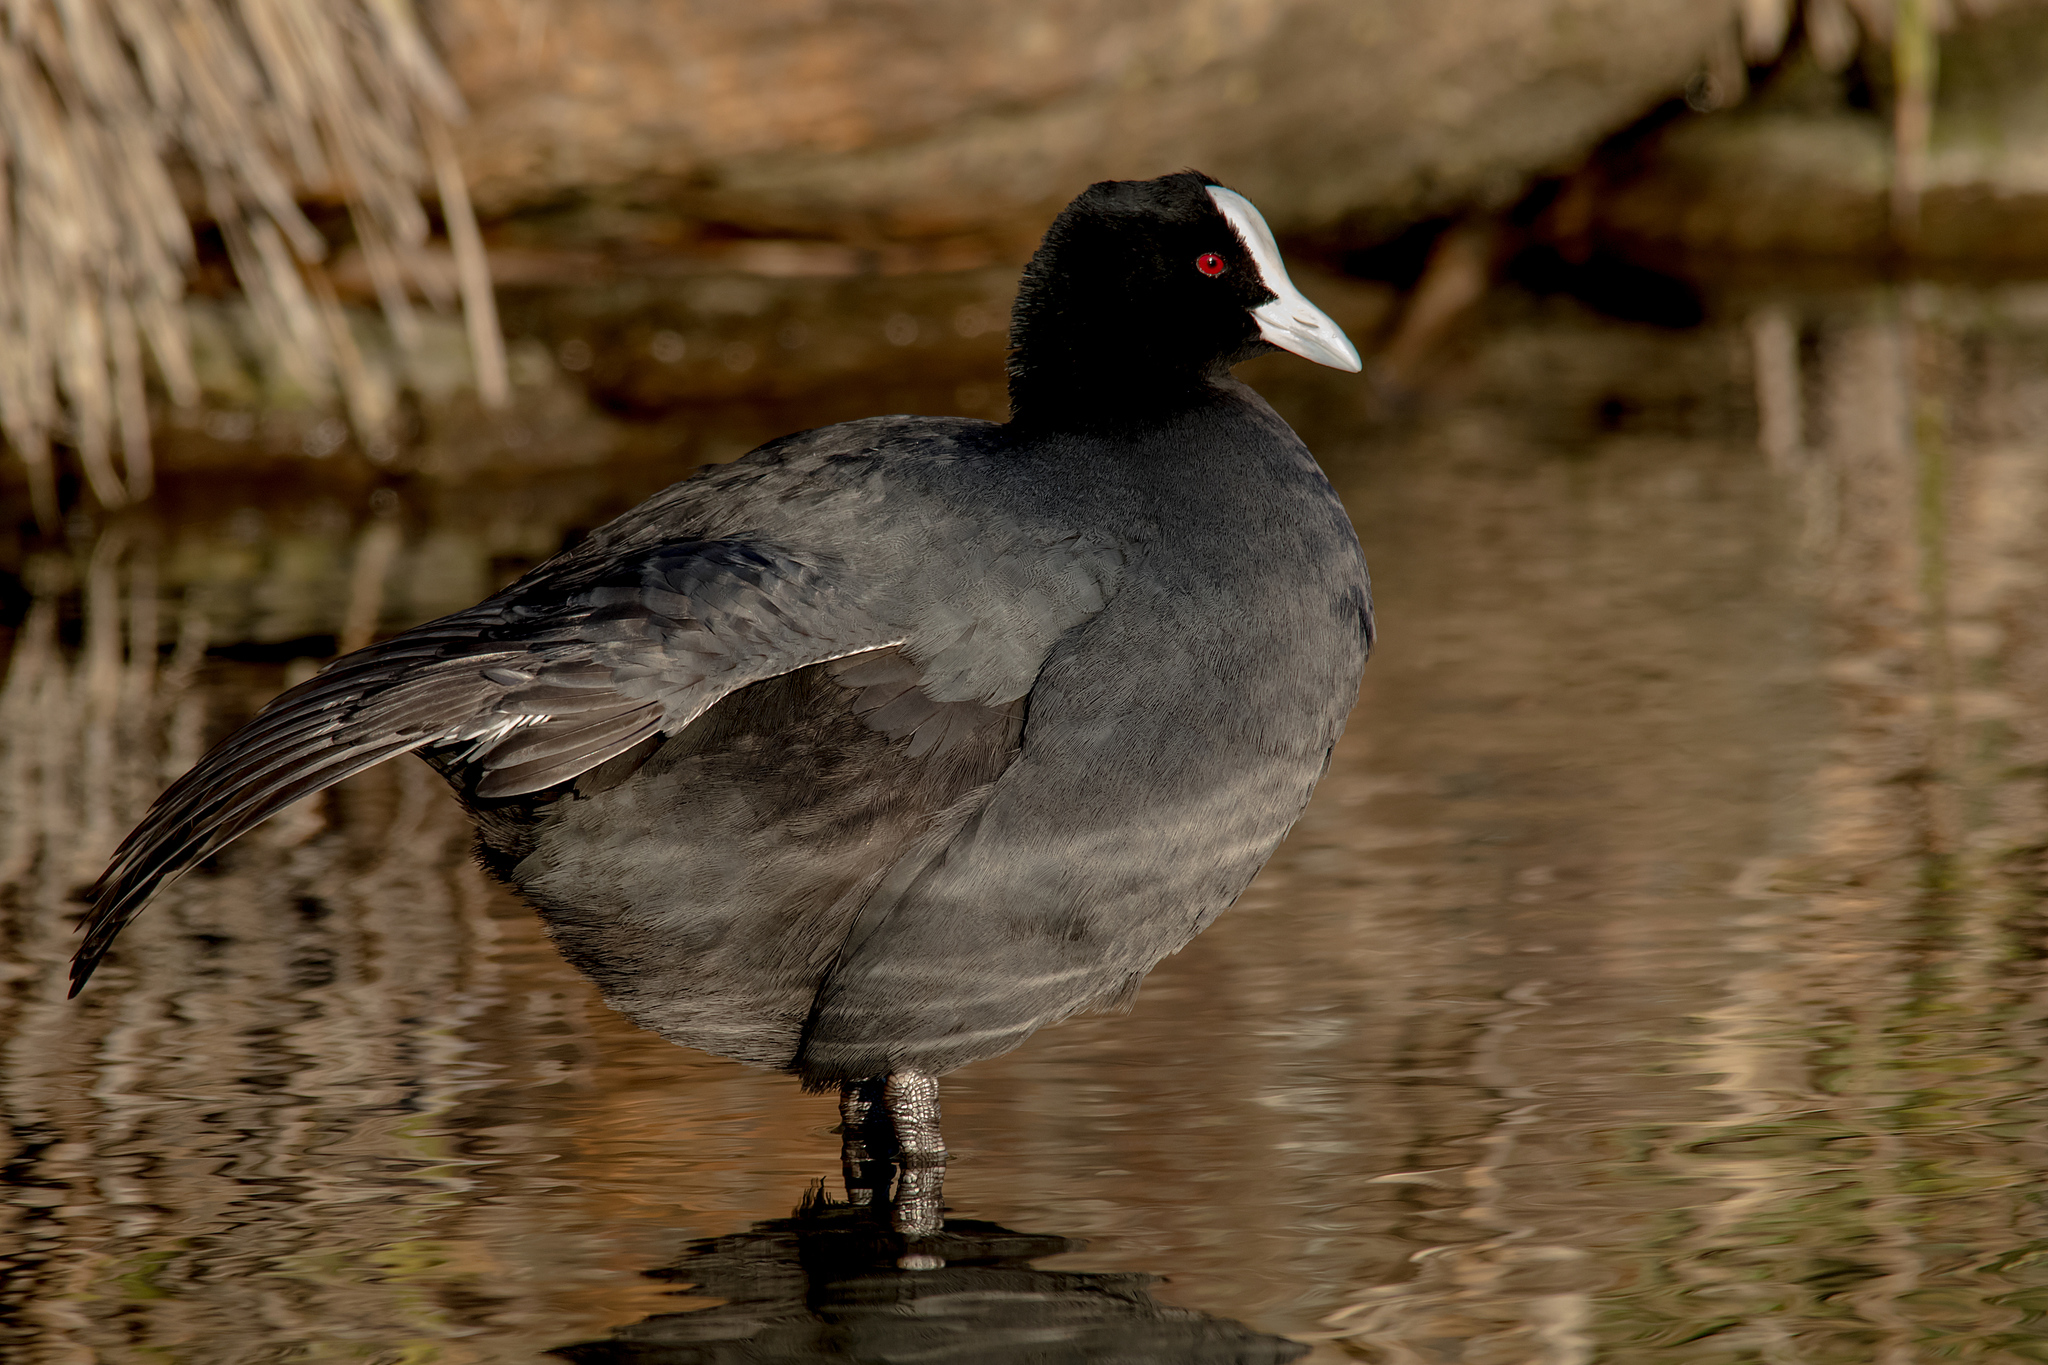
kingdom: Animalia
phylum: Chordata
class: Aves
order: Gruiformes
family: Rallidae
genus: Fulica
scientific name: Fulica atra
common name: Eurasian coot
